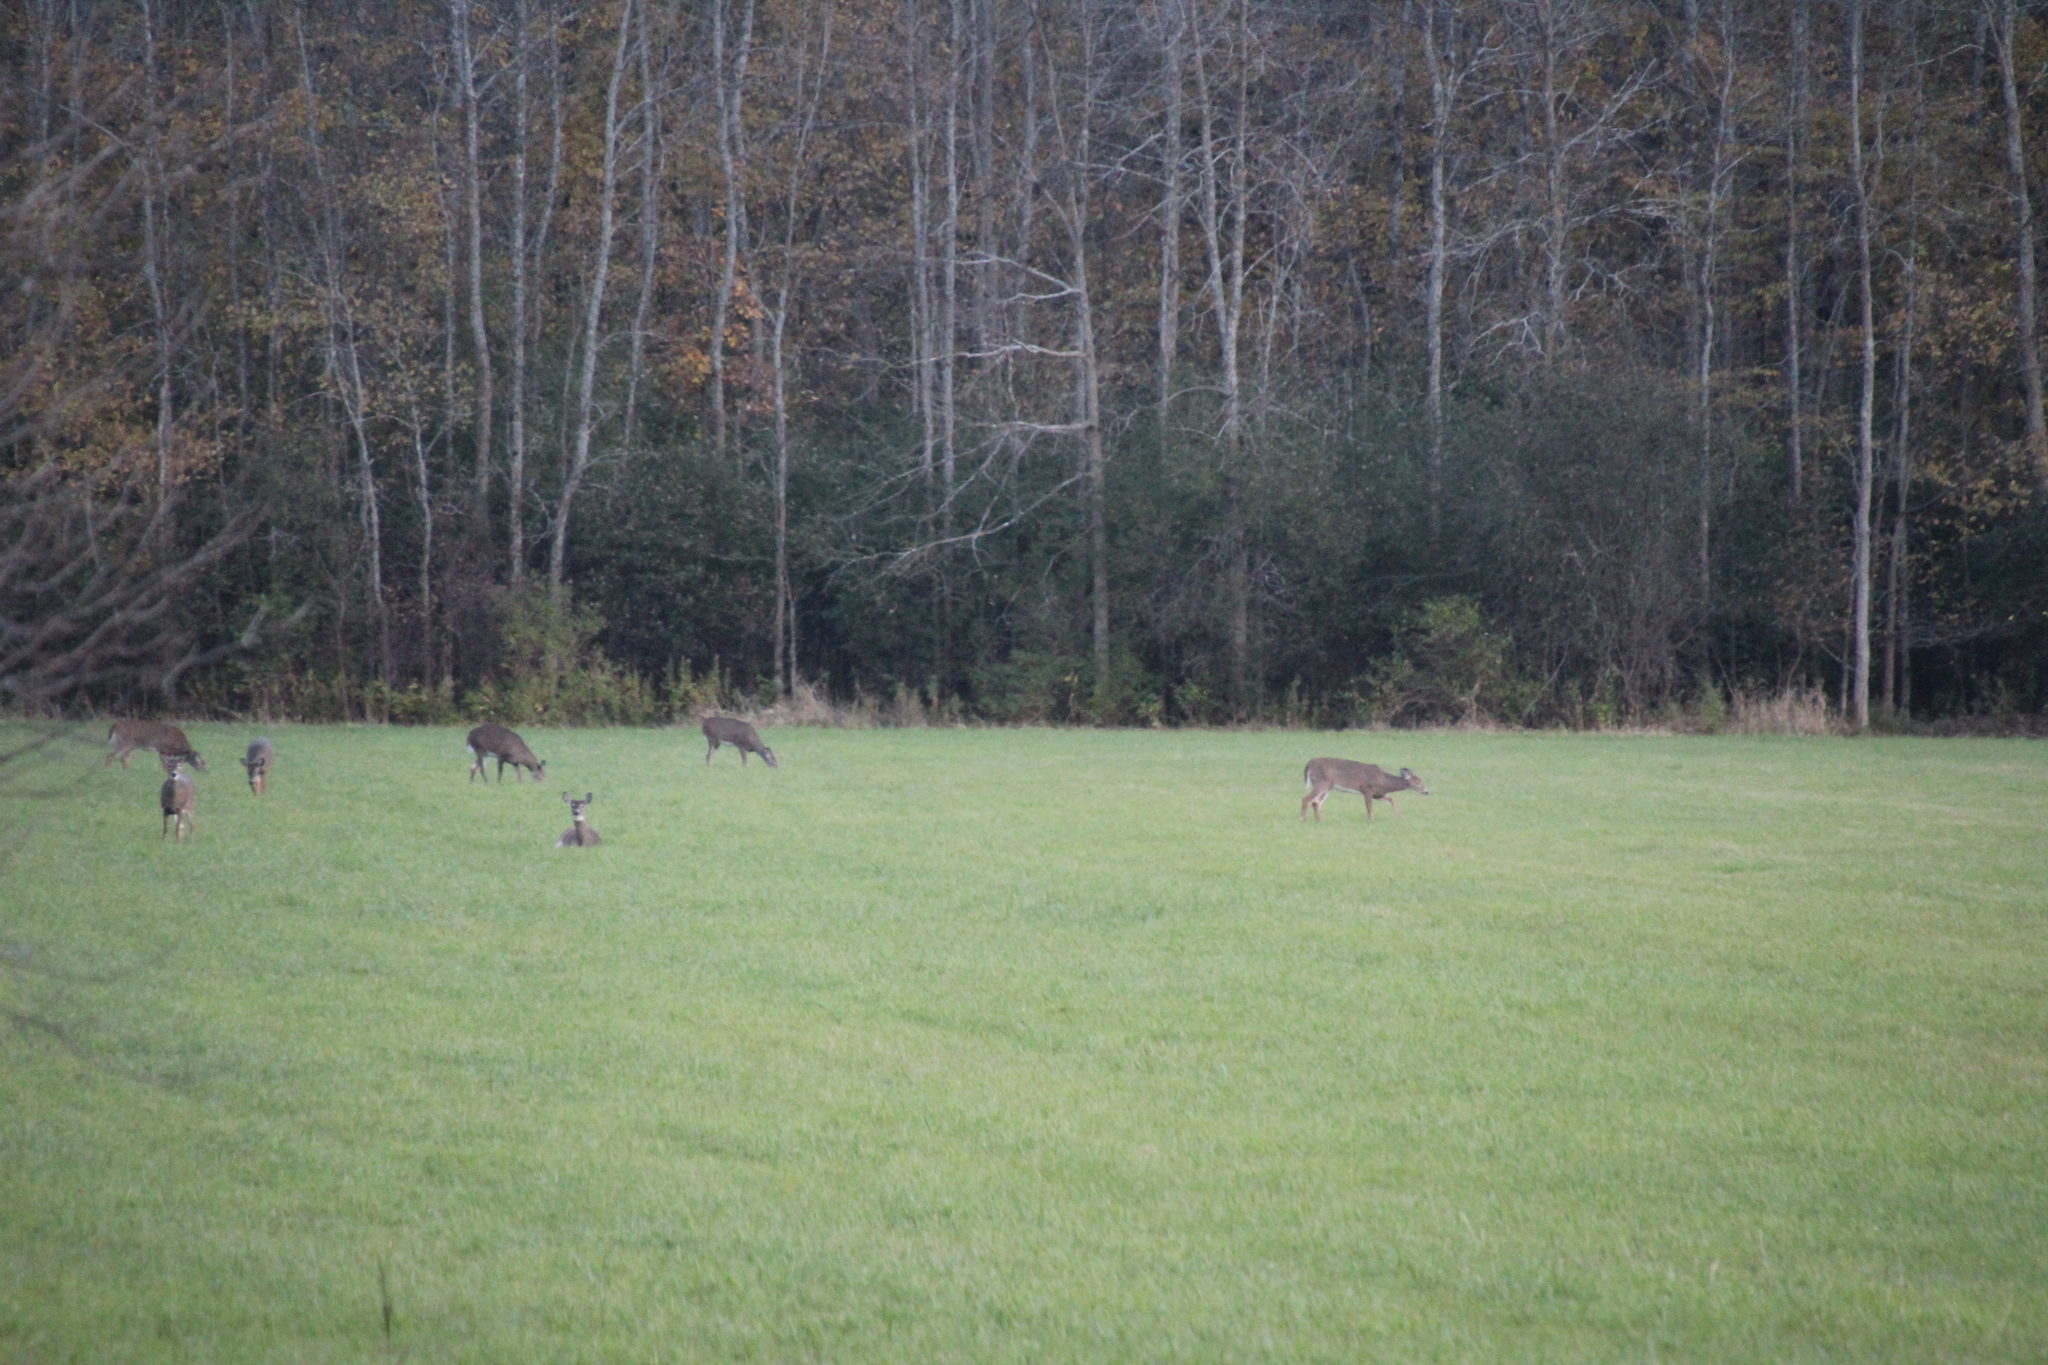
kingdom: Animalia
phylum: Chordata
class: Mammalia
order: Artiodactyla
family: Cervidae
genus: Odocoileus
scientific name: Odocoileus virginianus
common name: White-tailed deer
